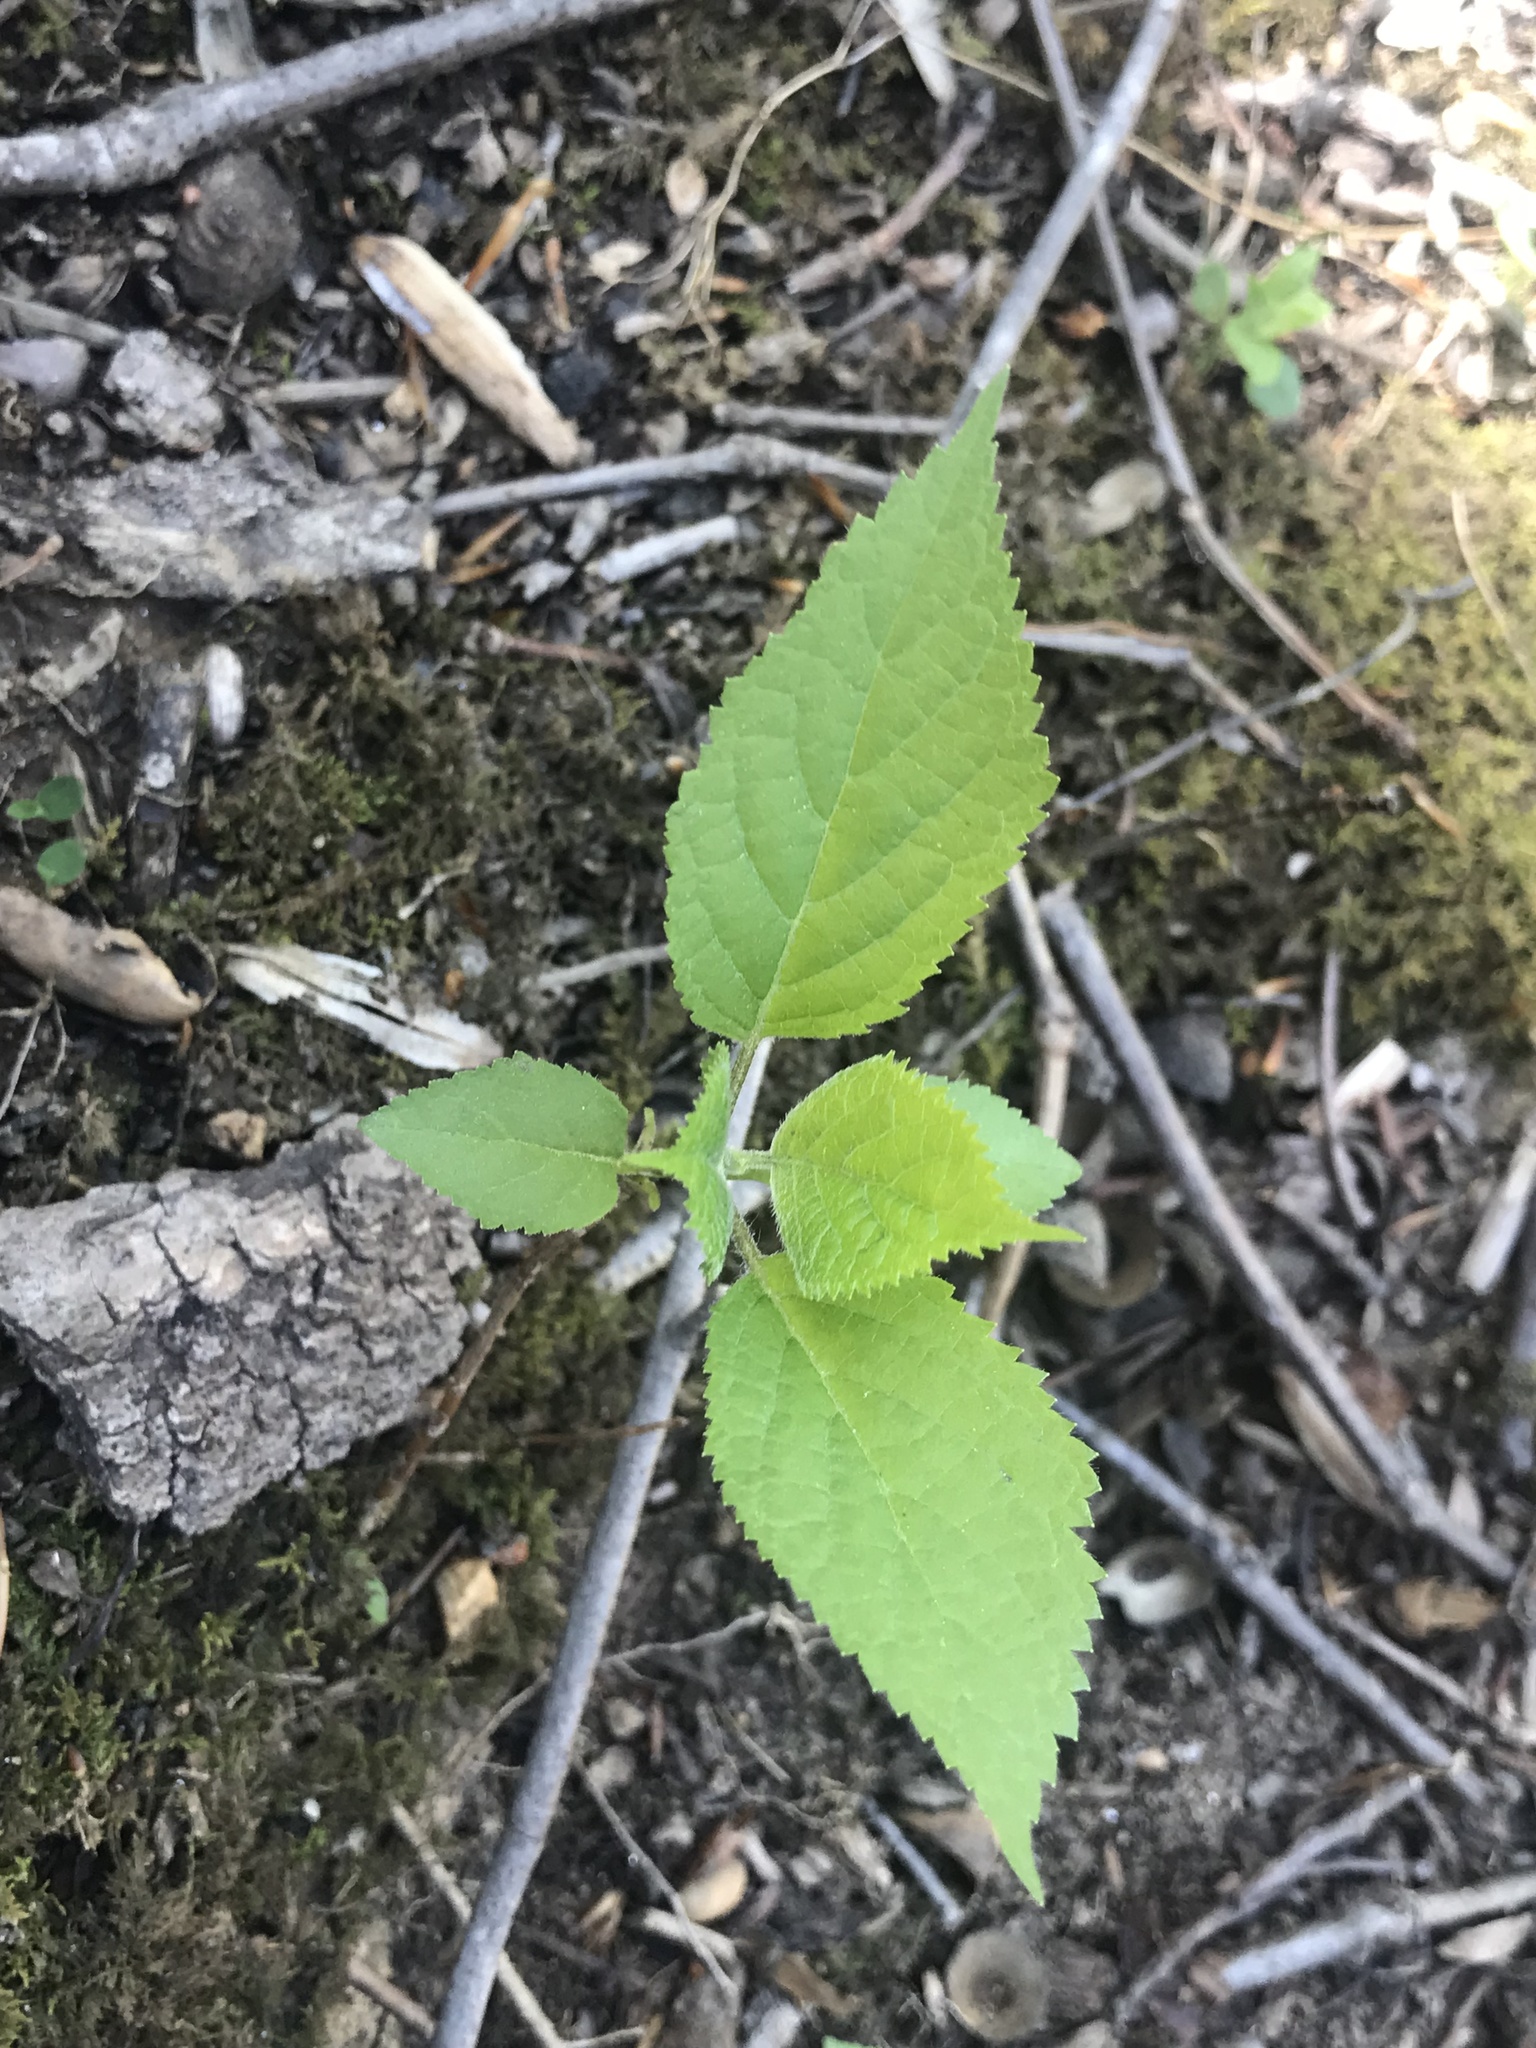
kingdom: Plantae
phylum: Tracheophyta
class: Magnoliopsida
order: Cornales
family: Hydrangeaceae
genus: Hydrangea
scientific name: Hydrangea arborescens
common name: Sevenbark
